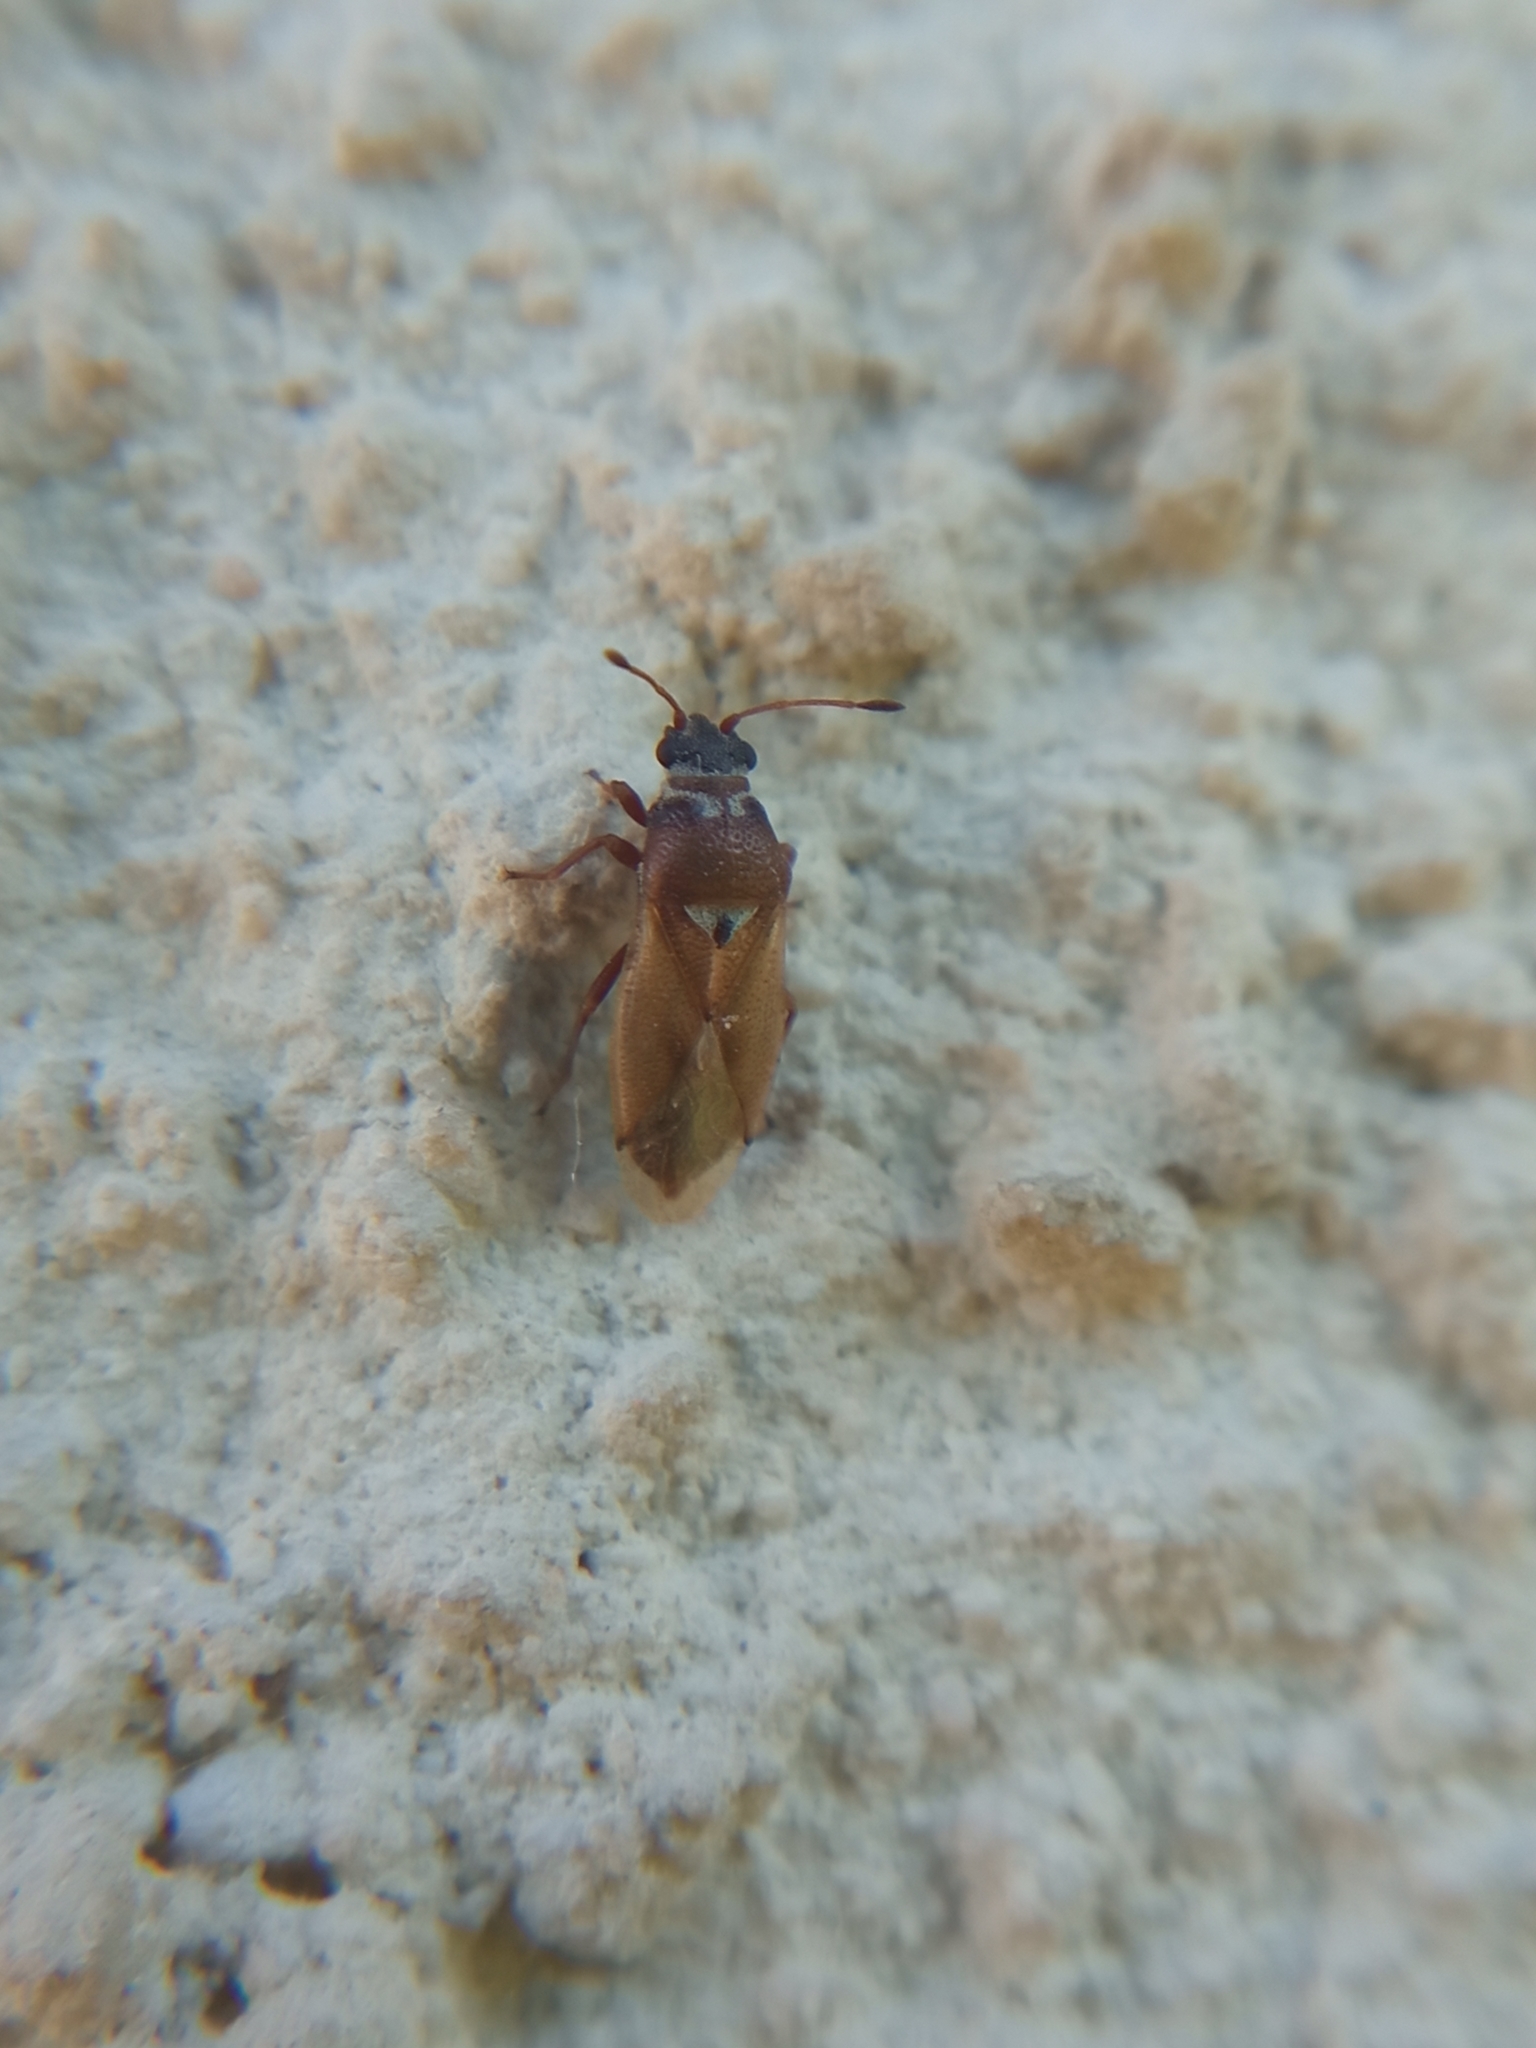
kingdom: Animalia
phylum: Arthropoda
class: Insecta
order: Hemiptera
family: Cymidae
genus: Cymus
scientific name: Cymus melanocephalus
